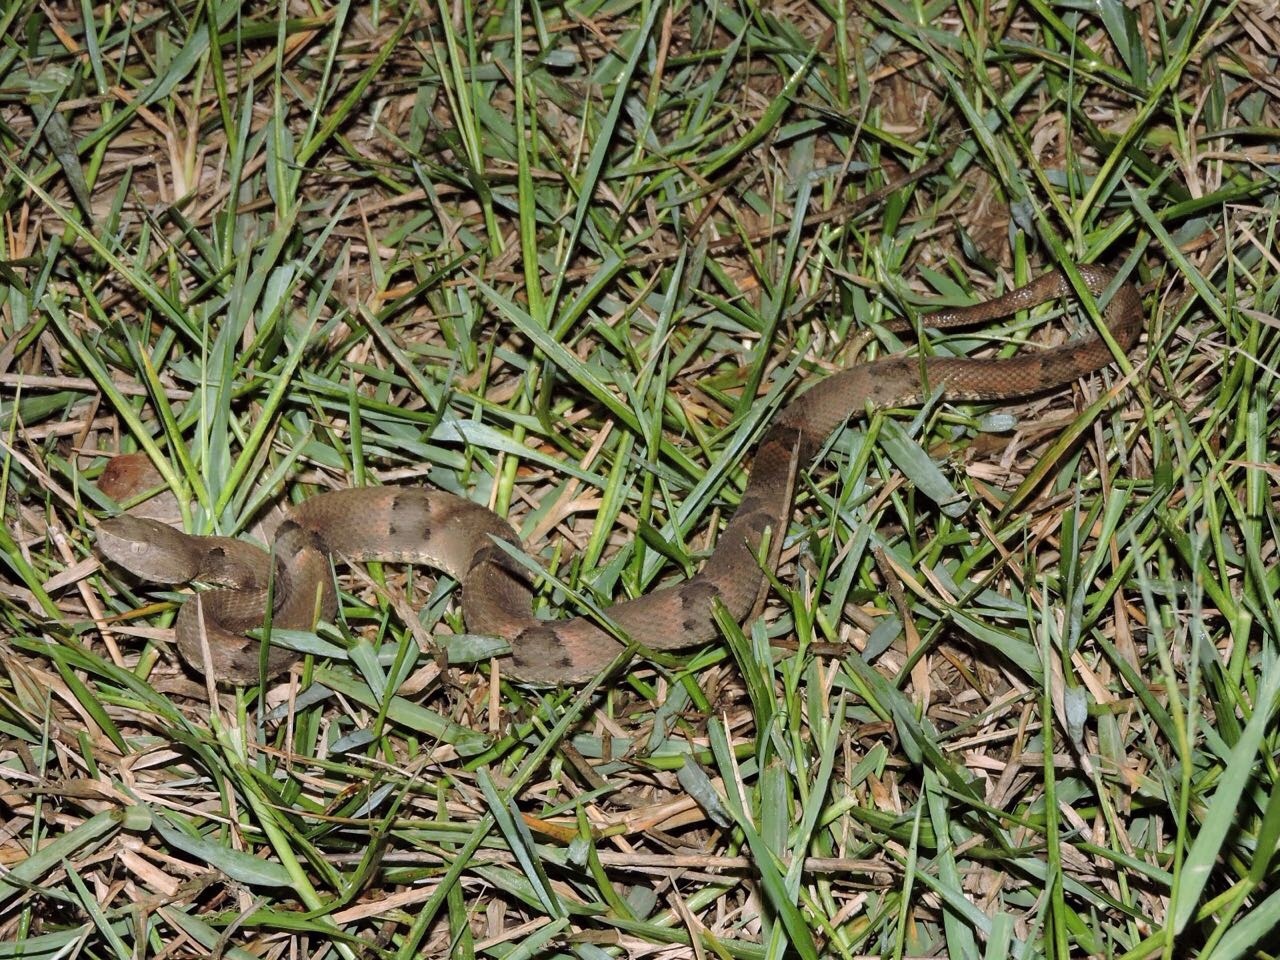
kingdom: Animalia
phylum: Chordata
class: Squamata
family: Viperidae
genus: Bothrops
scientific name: Bothrops moojeni
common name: Brazilian lancehead
